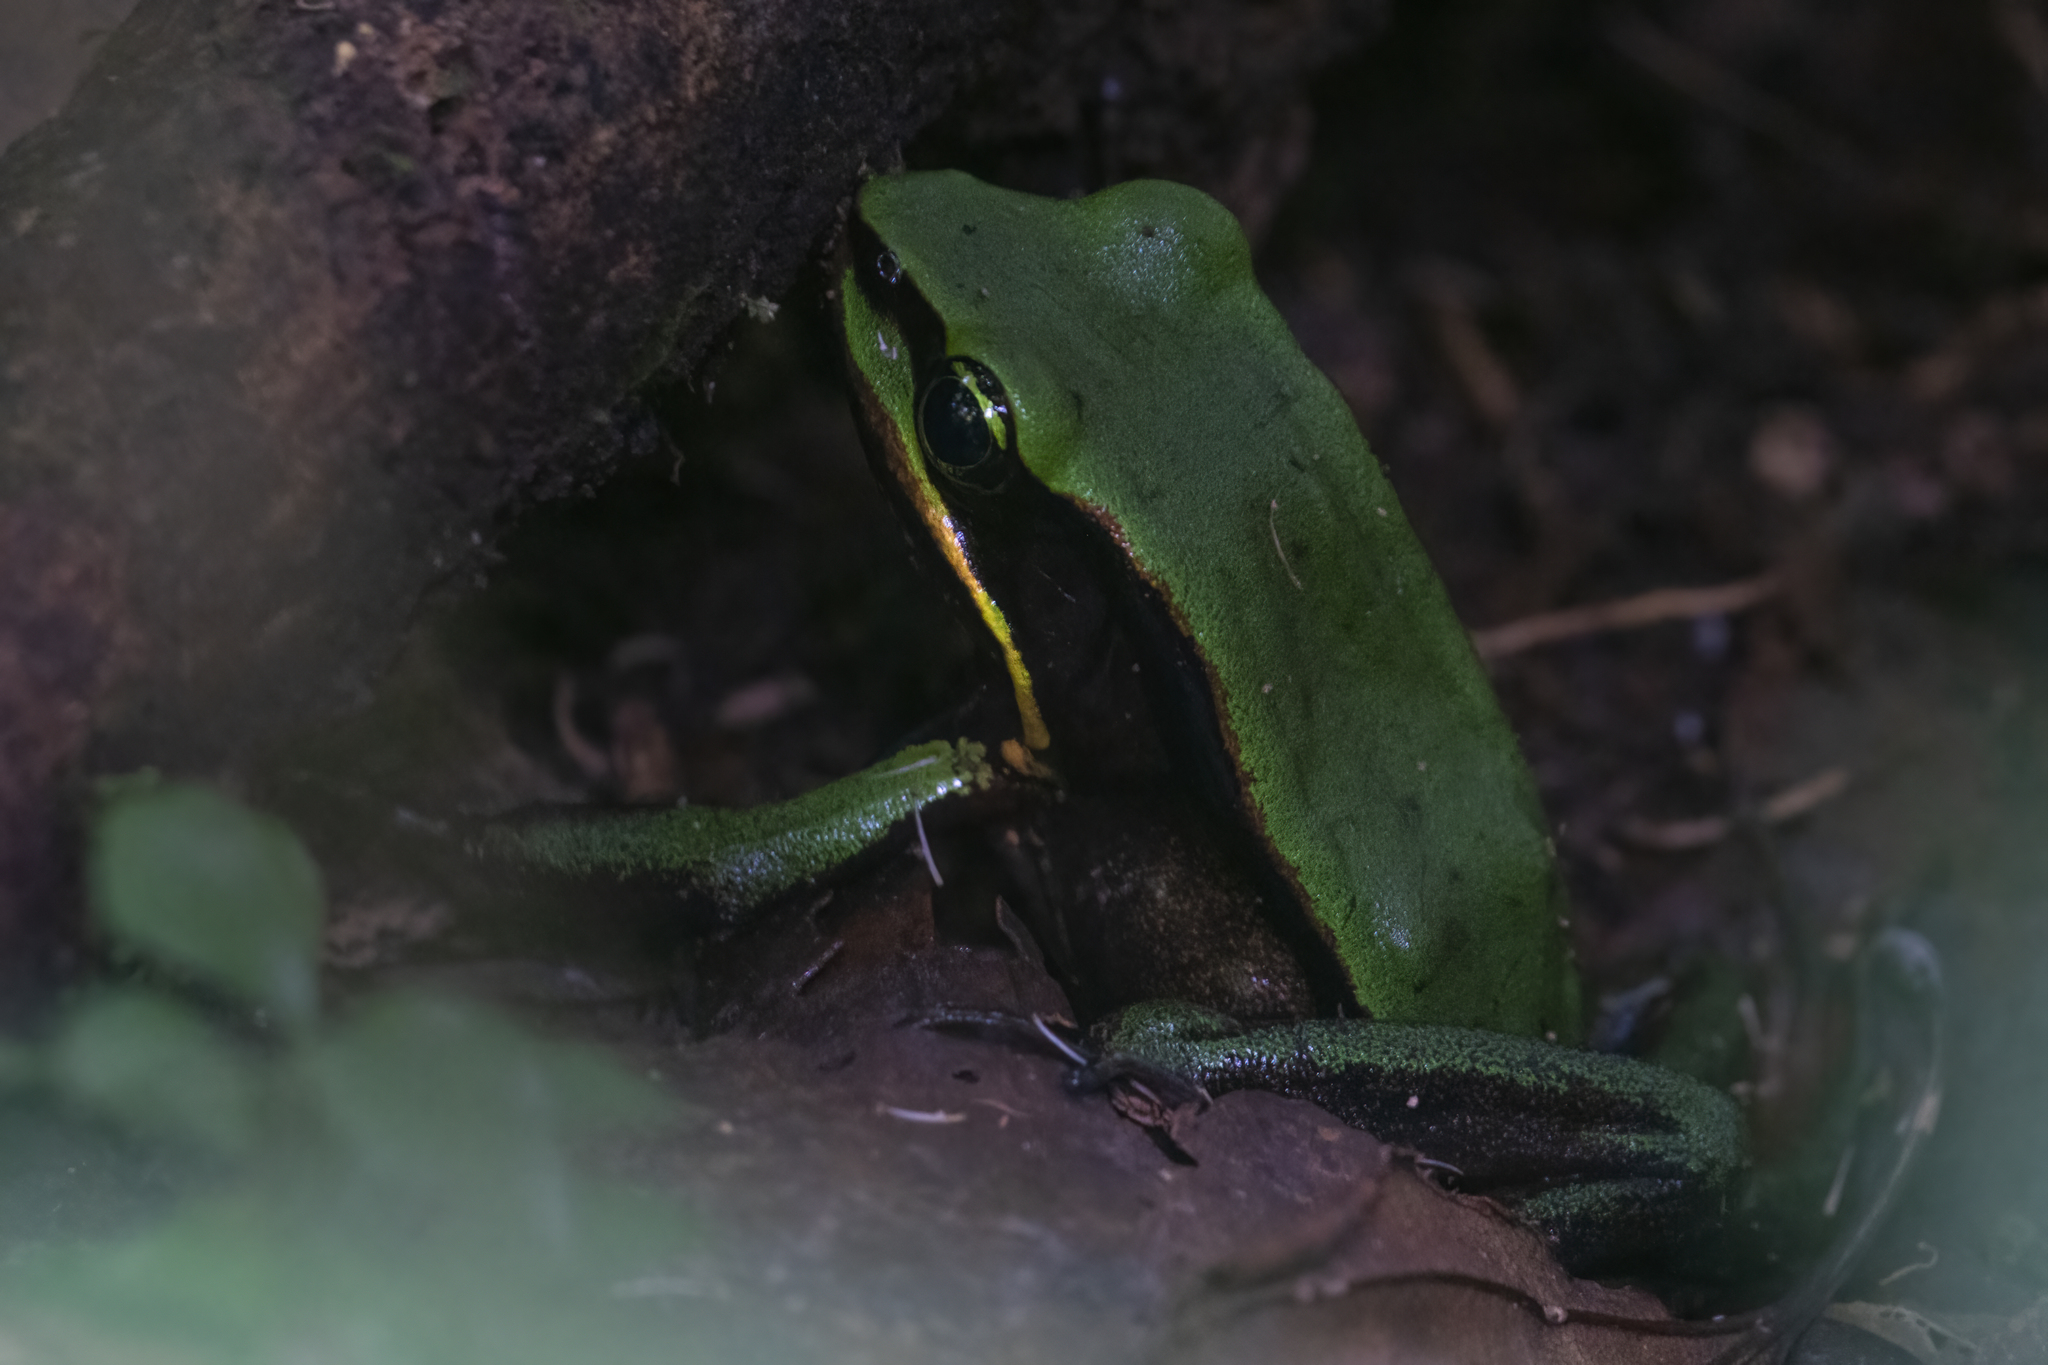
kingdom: Animalia
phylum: Chordata
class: Amphibia
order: Anura
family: Ranidae
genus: Lithobates
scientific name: Lithobates vibicarius
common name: Green-eyed frog
